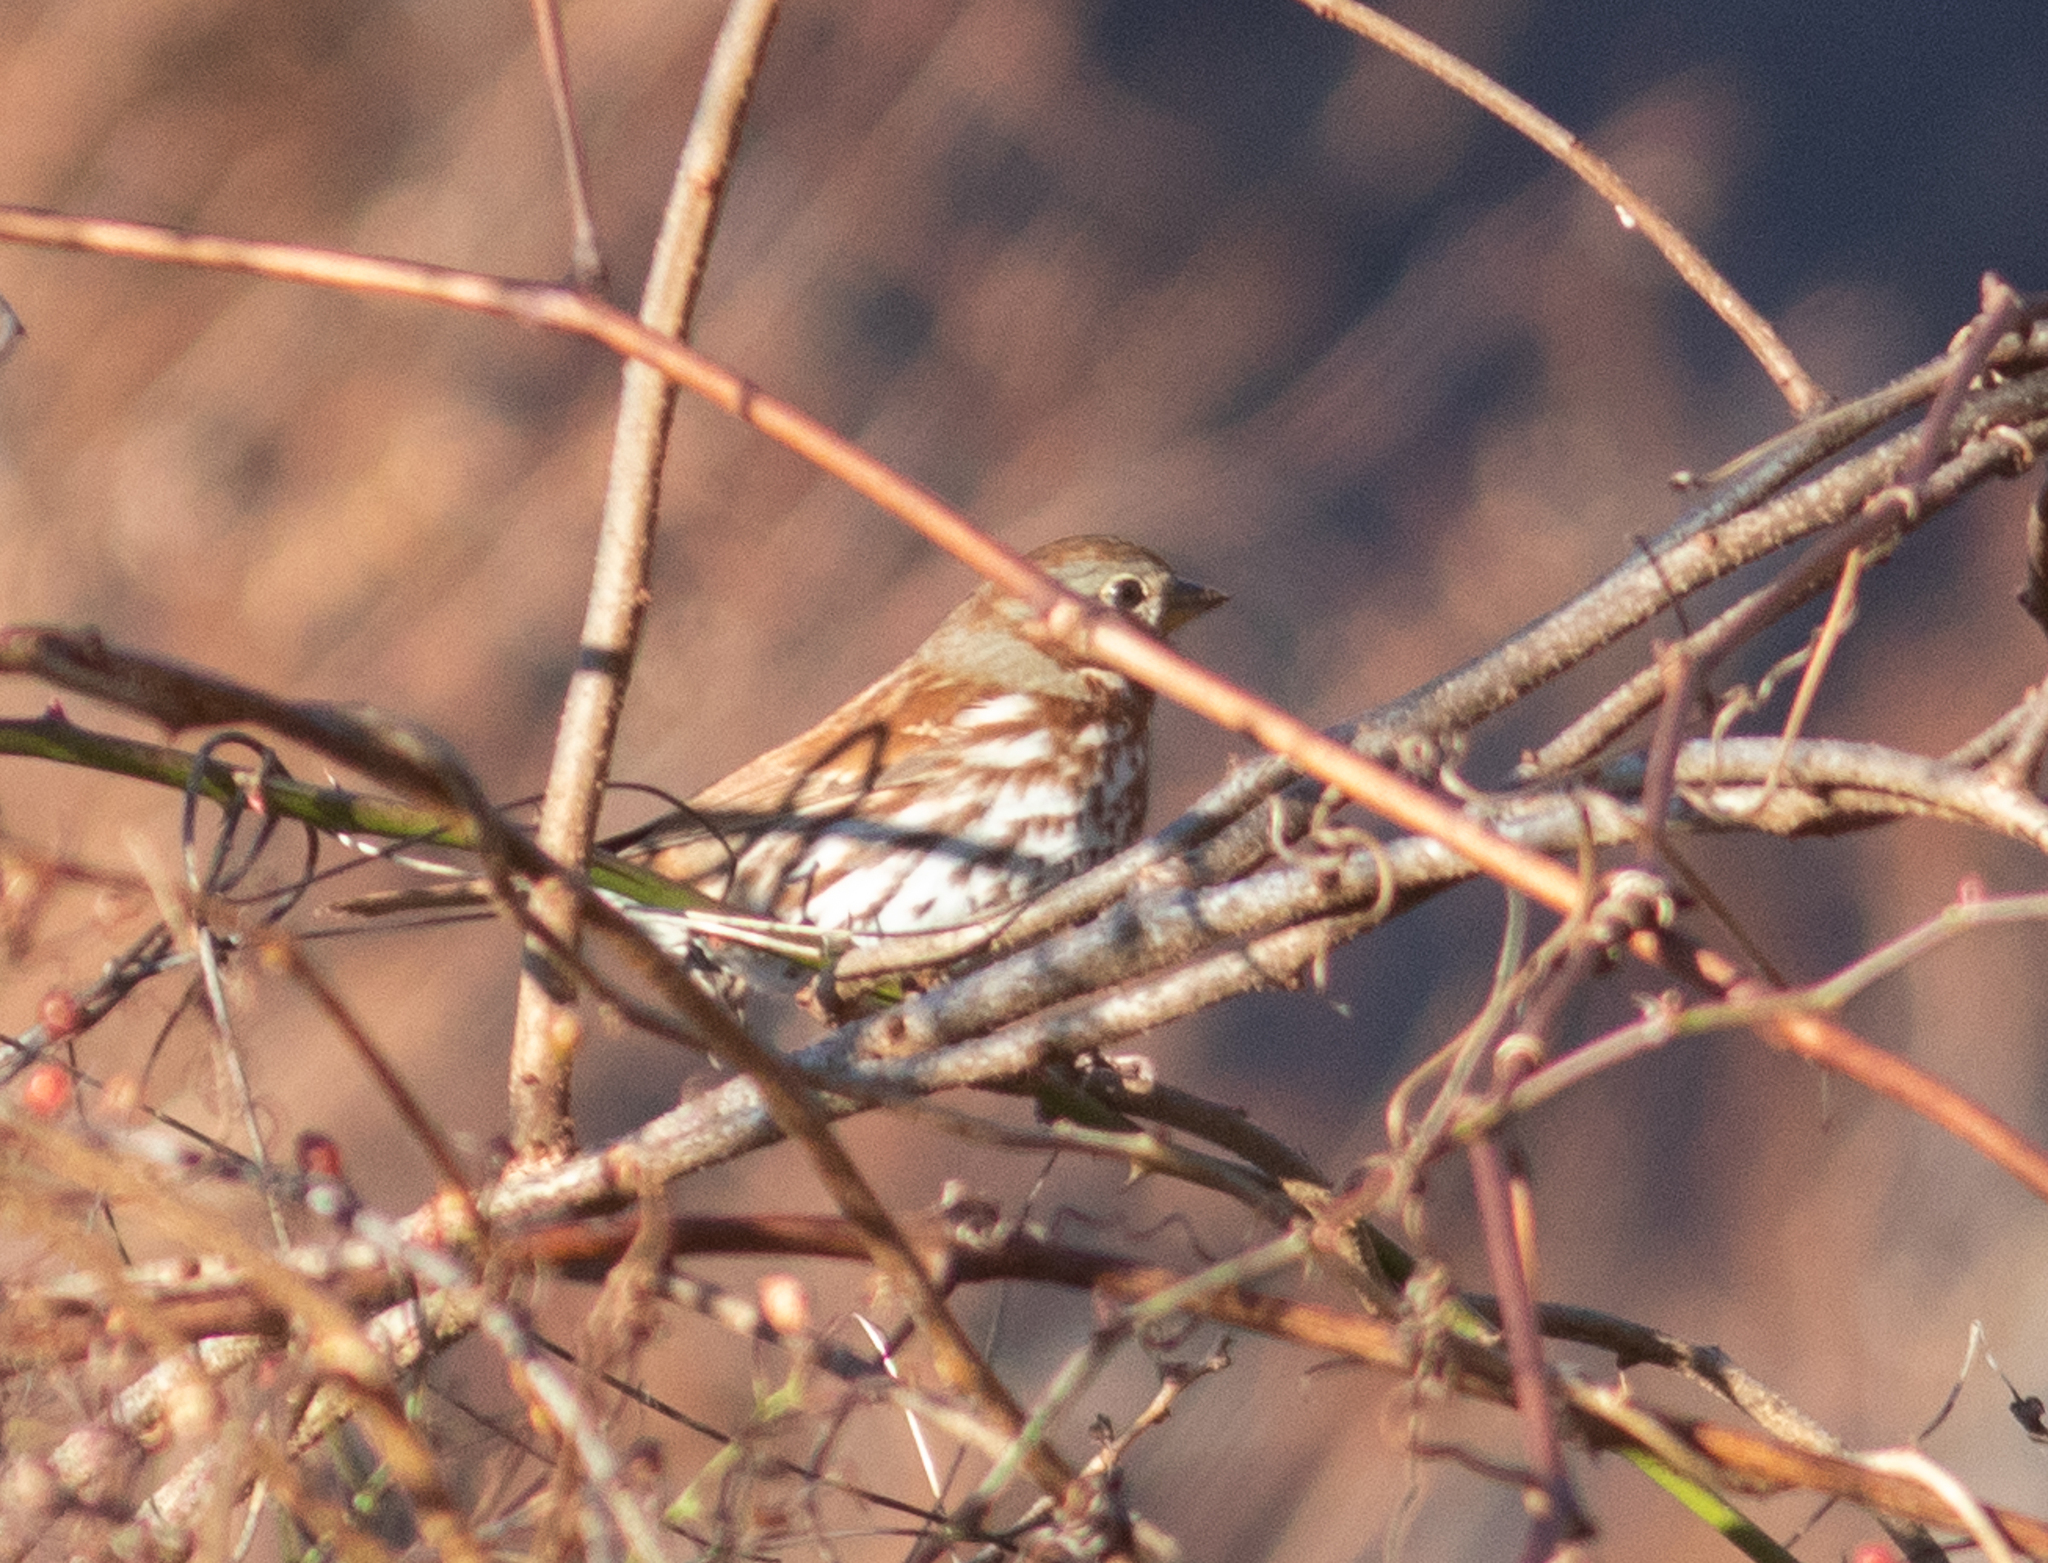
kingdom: Animalia
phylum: Chordata
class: Aves
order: Passeriformes
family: Passerellidae
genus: Passerella
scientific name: Passerella iliaca
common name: Fox sparrow
